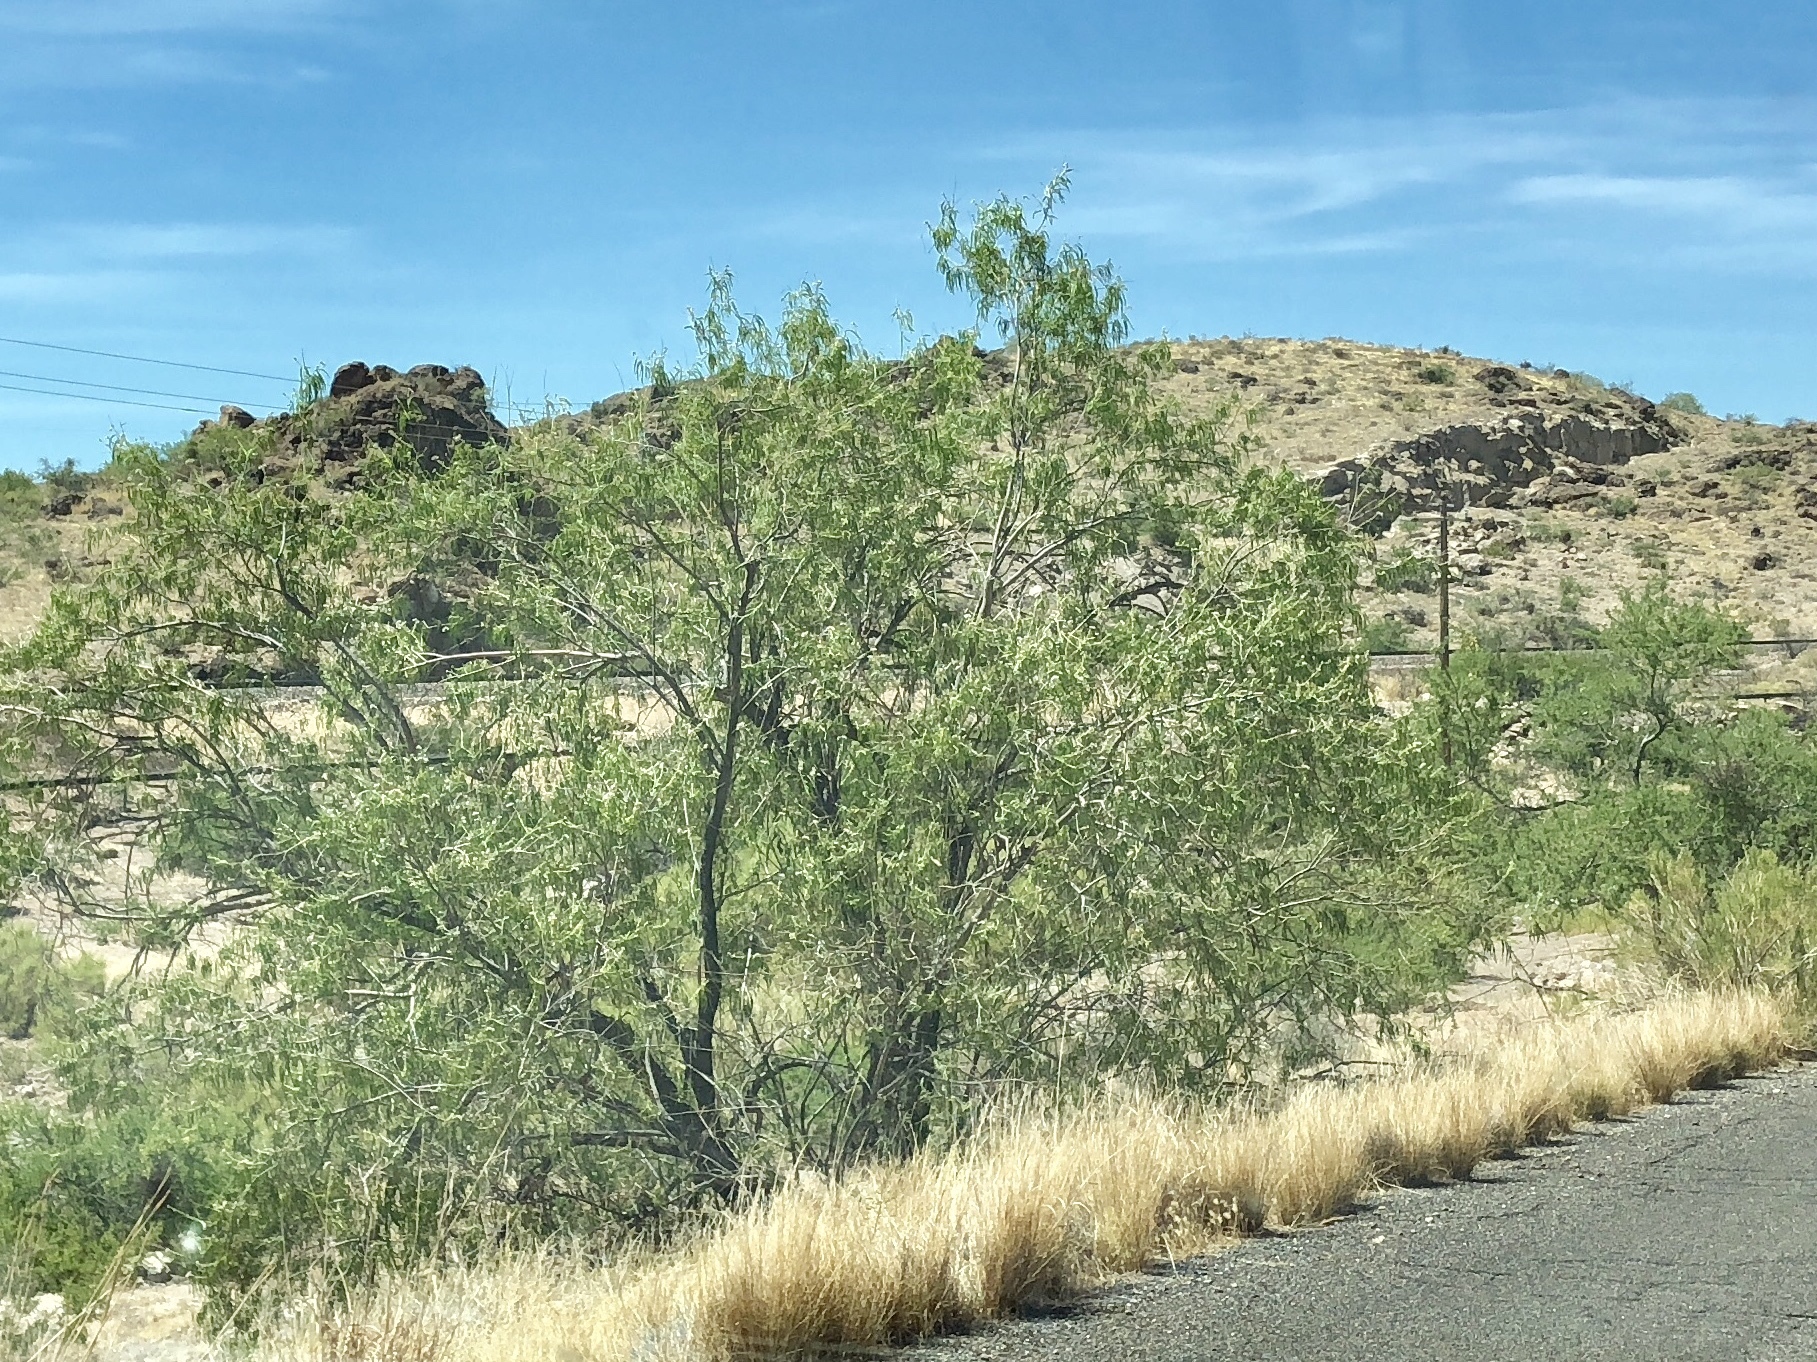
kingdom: Plantae
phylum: Tracheophyta
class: Magnoliopsida
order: Lamiales
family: Bignoniaceae
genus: Chilopsis
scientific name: Chilopsis linearis
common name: Desert-willow
